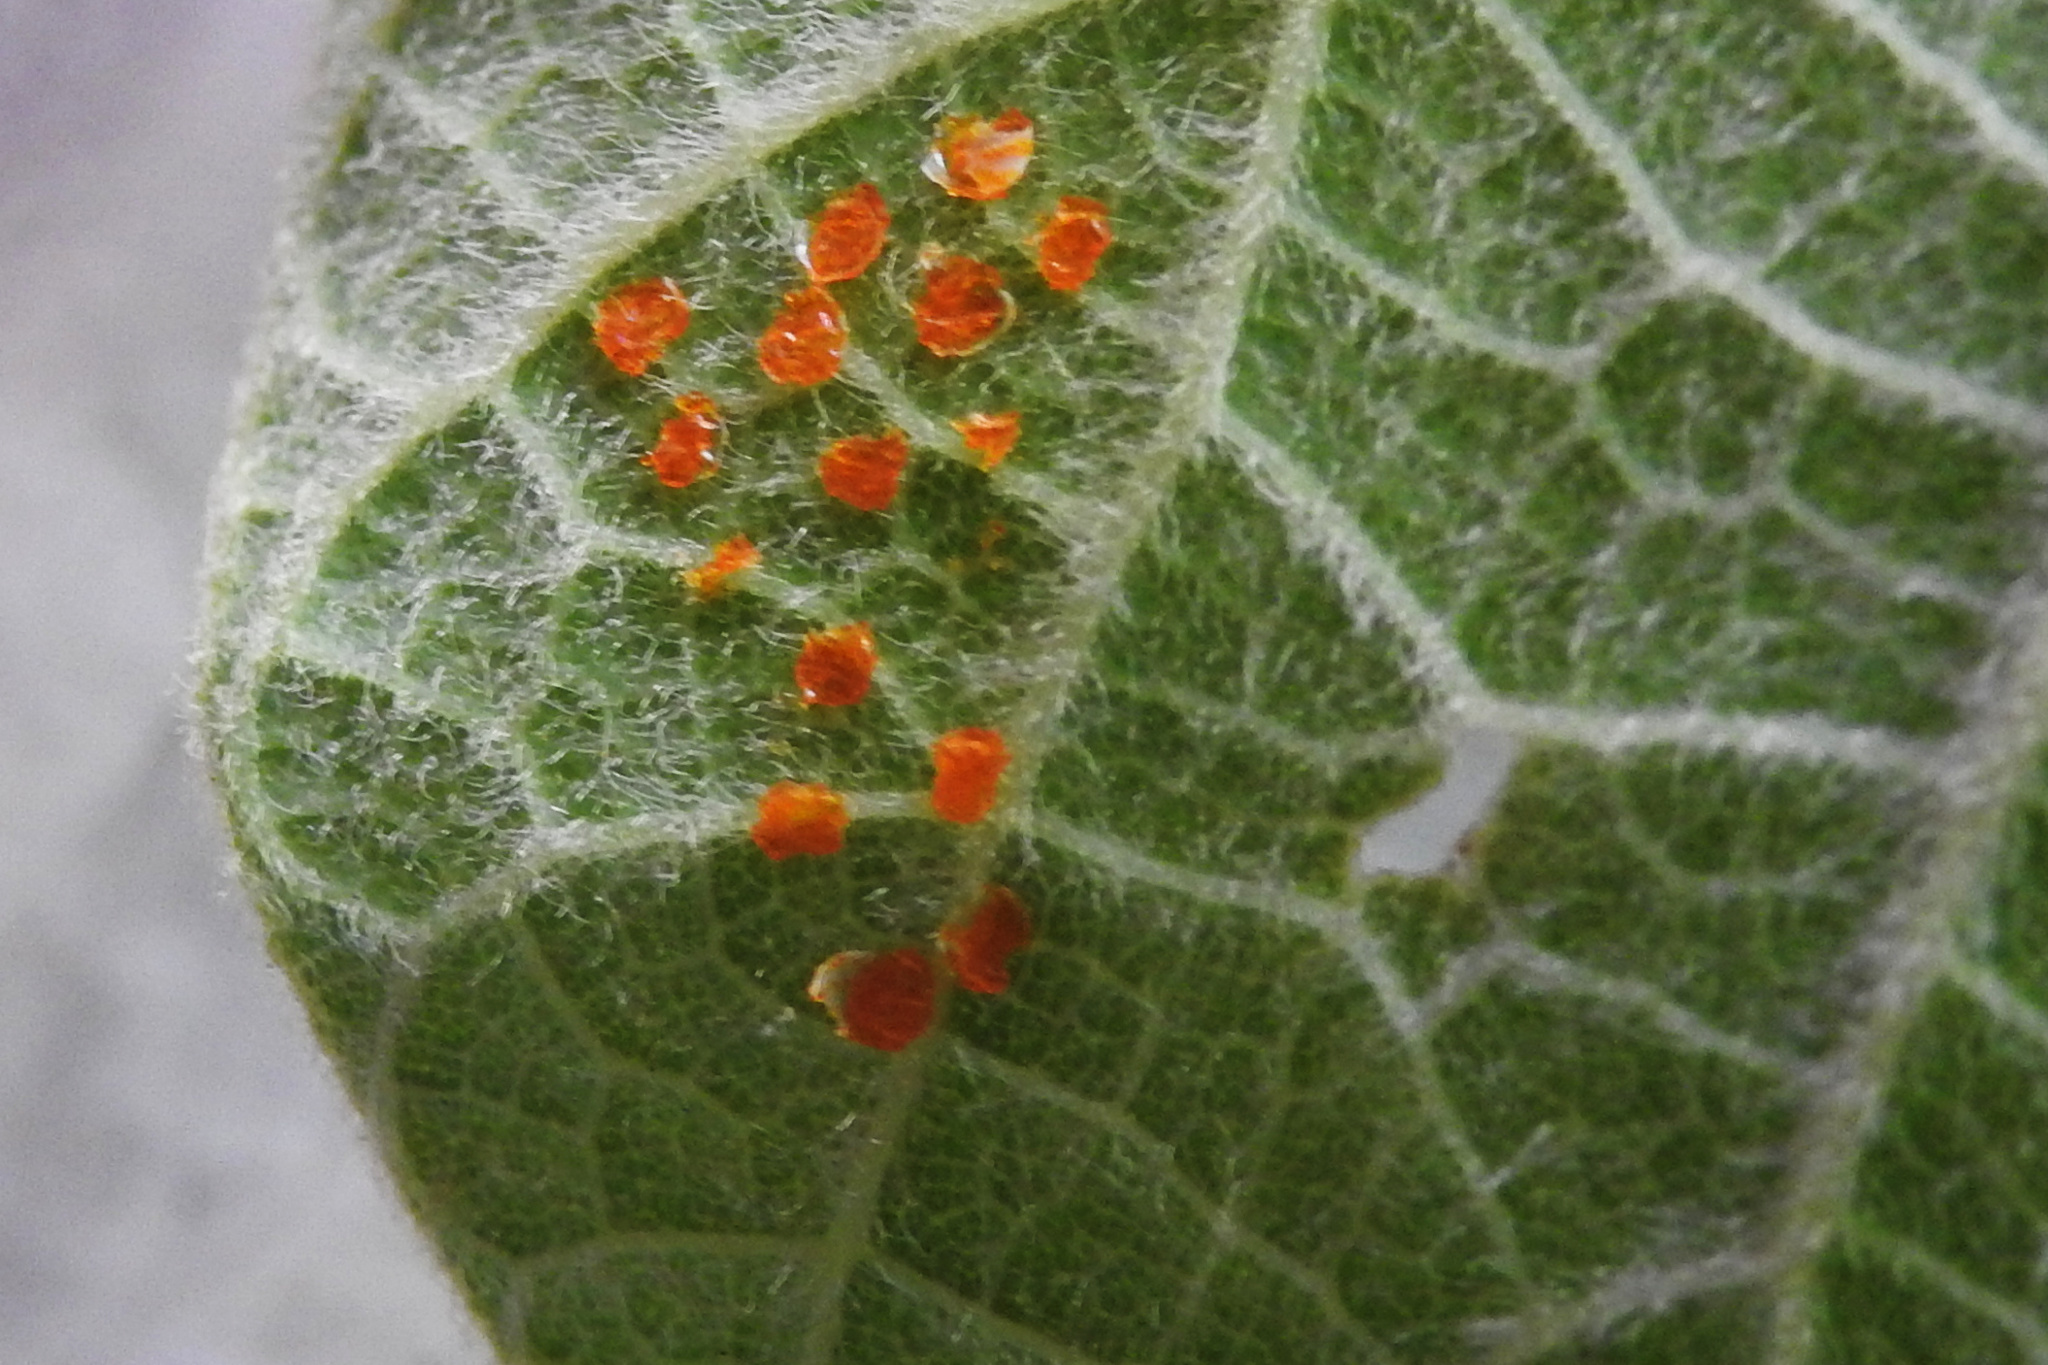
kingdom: Animalia
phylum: Arthropoda
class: Insecta
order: Lepidoptera
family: Papilionidae
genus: Battus
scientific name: Battus philenor
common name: Pipevine swallowtail
